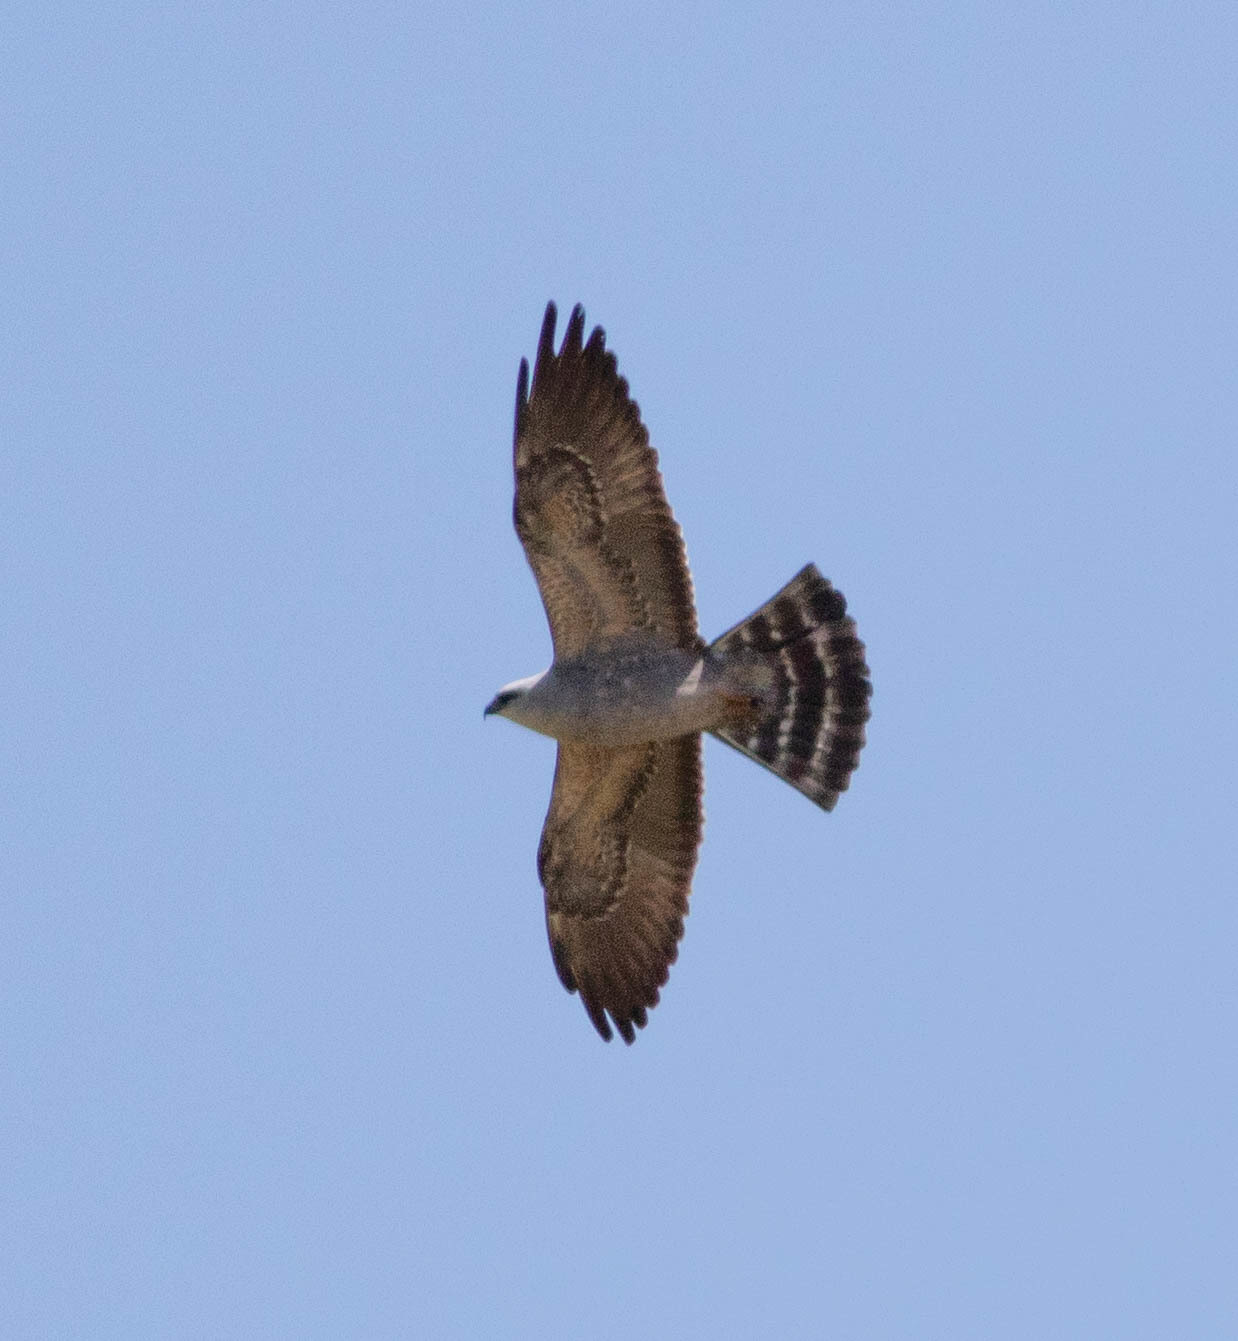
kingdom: Animalia
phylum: Chordata
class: Aves
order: Accipitriformes
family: Accipitridae
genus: Ictinia
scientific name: Ictinia mississippiensis
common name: Mississippi kite
